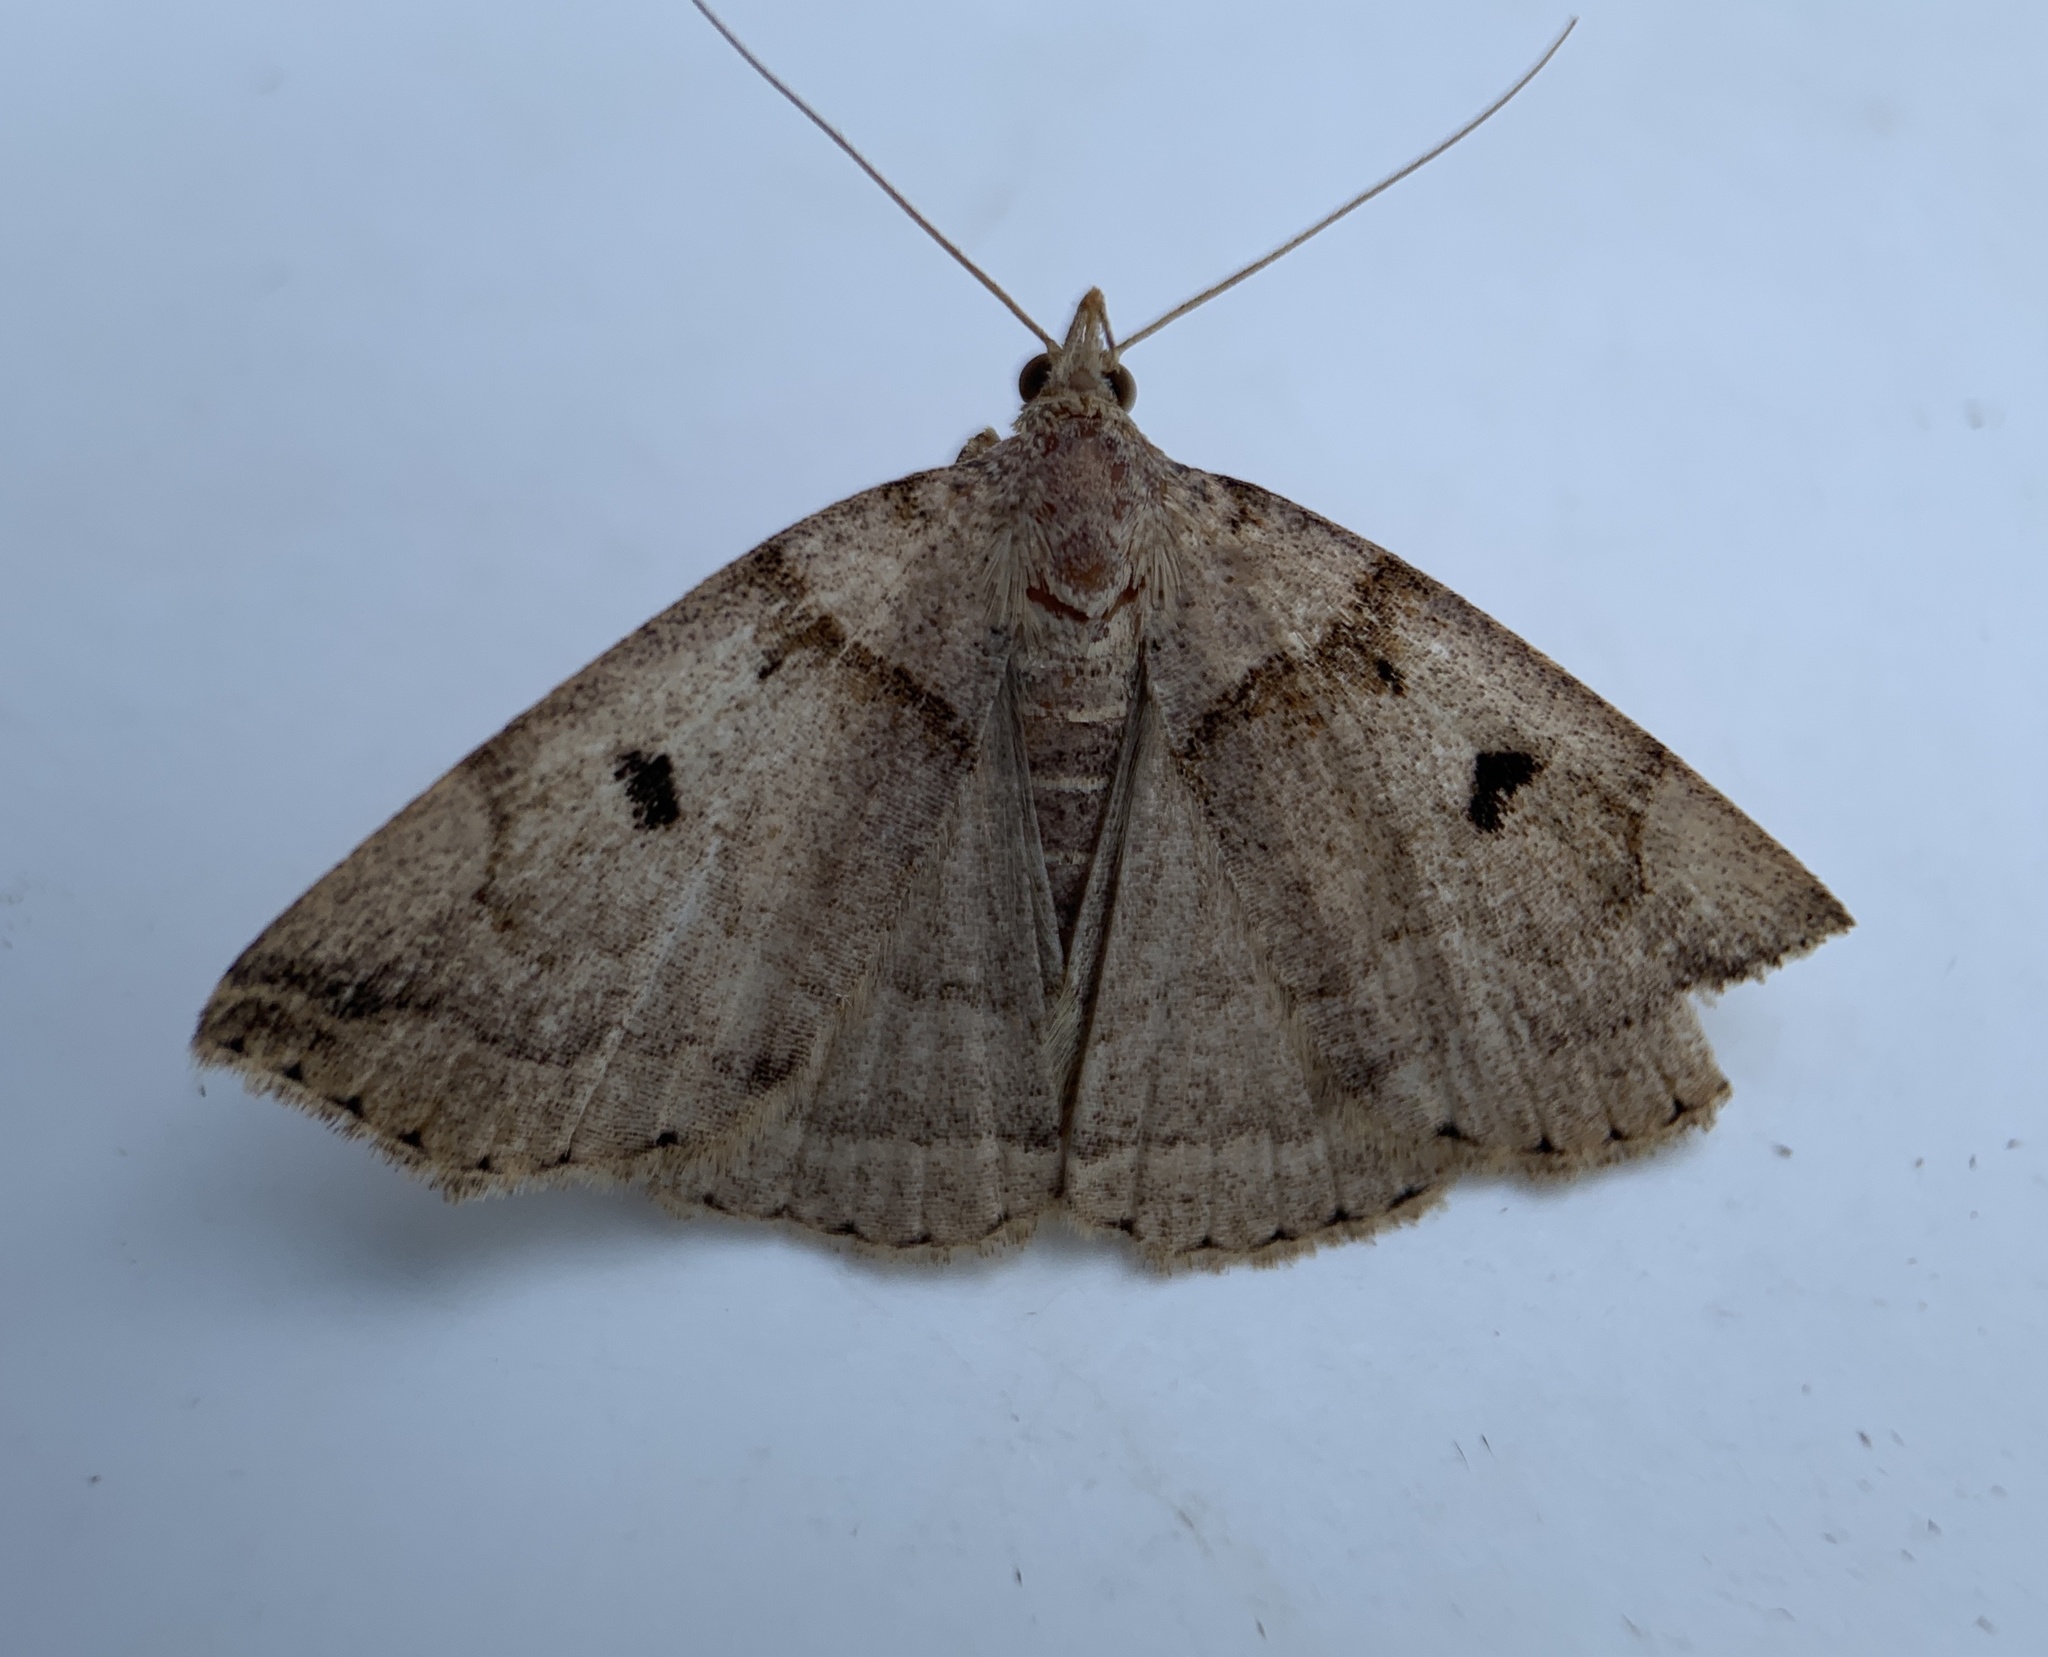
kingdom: Animalia
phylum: Arthropoda
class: Insecta
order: Lepidoptera
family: Erebidae
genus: Zanclognatha
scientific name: Zanclognatha laevigata
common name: Variable fan-foot
